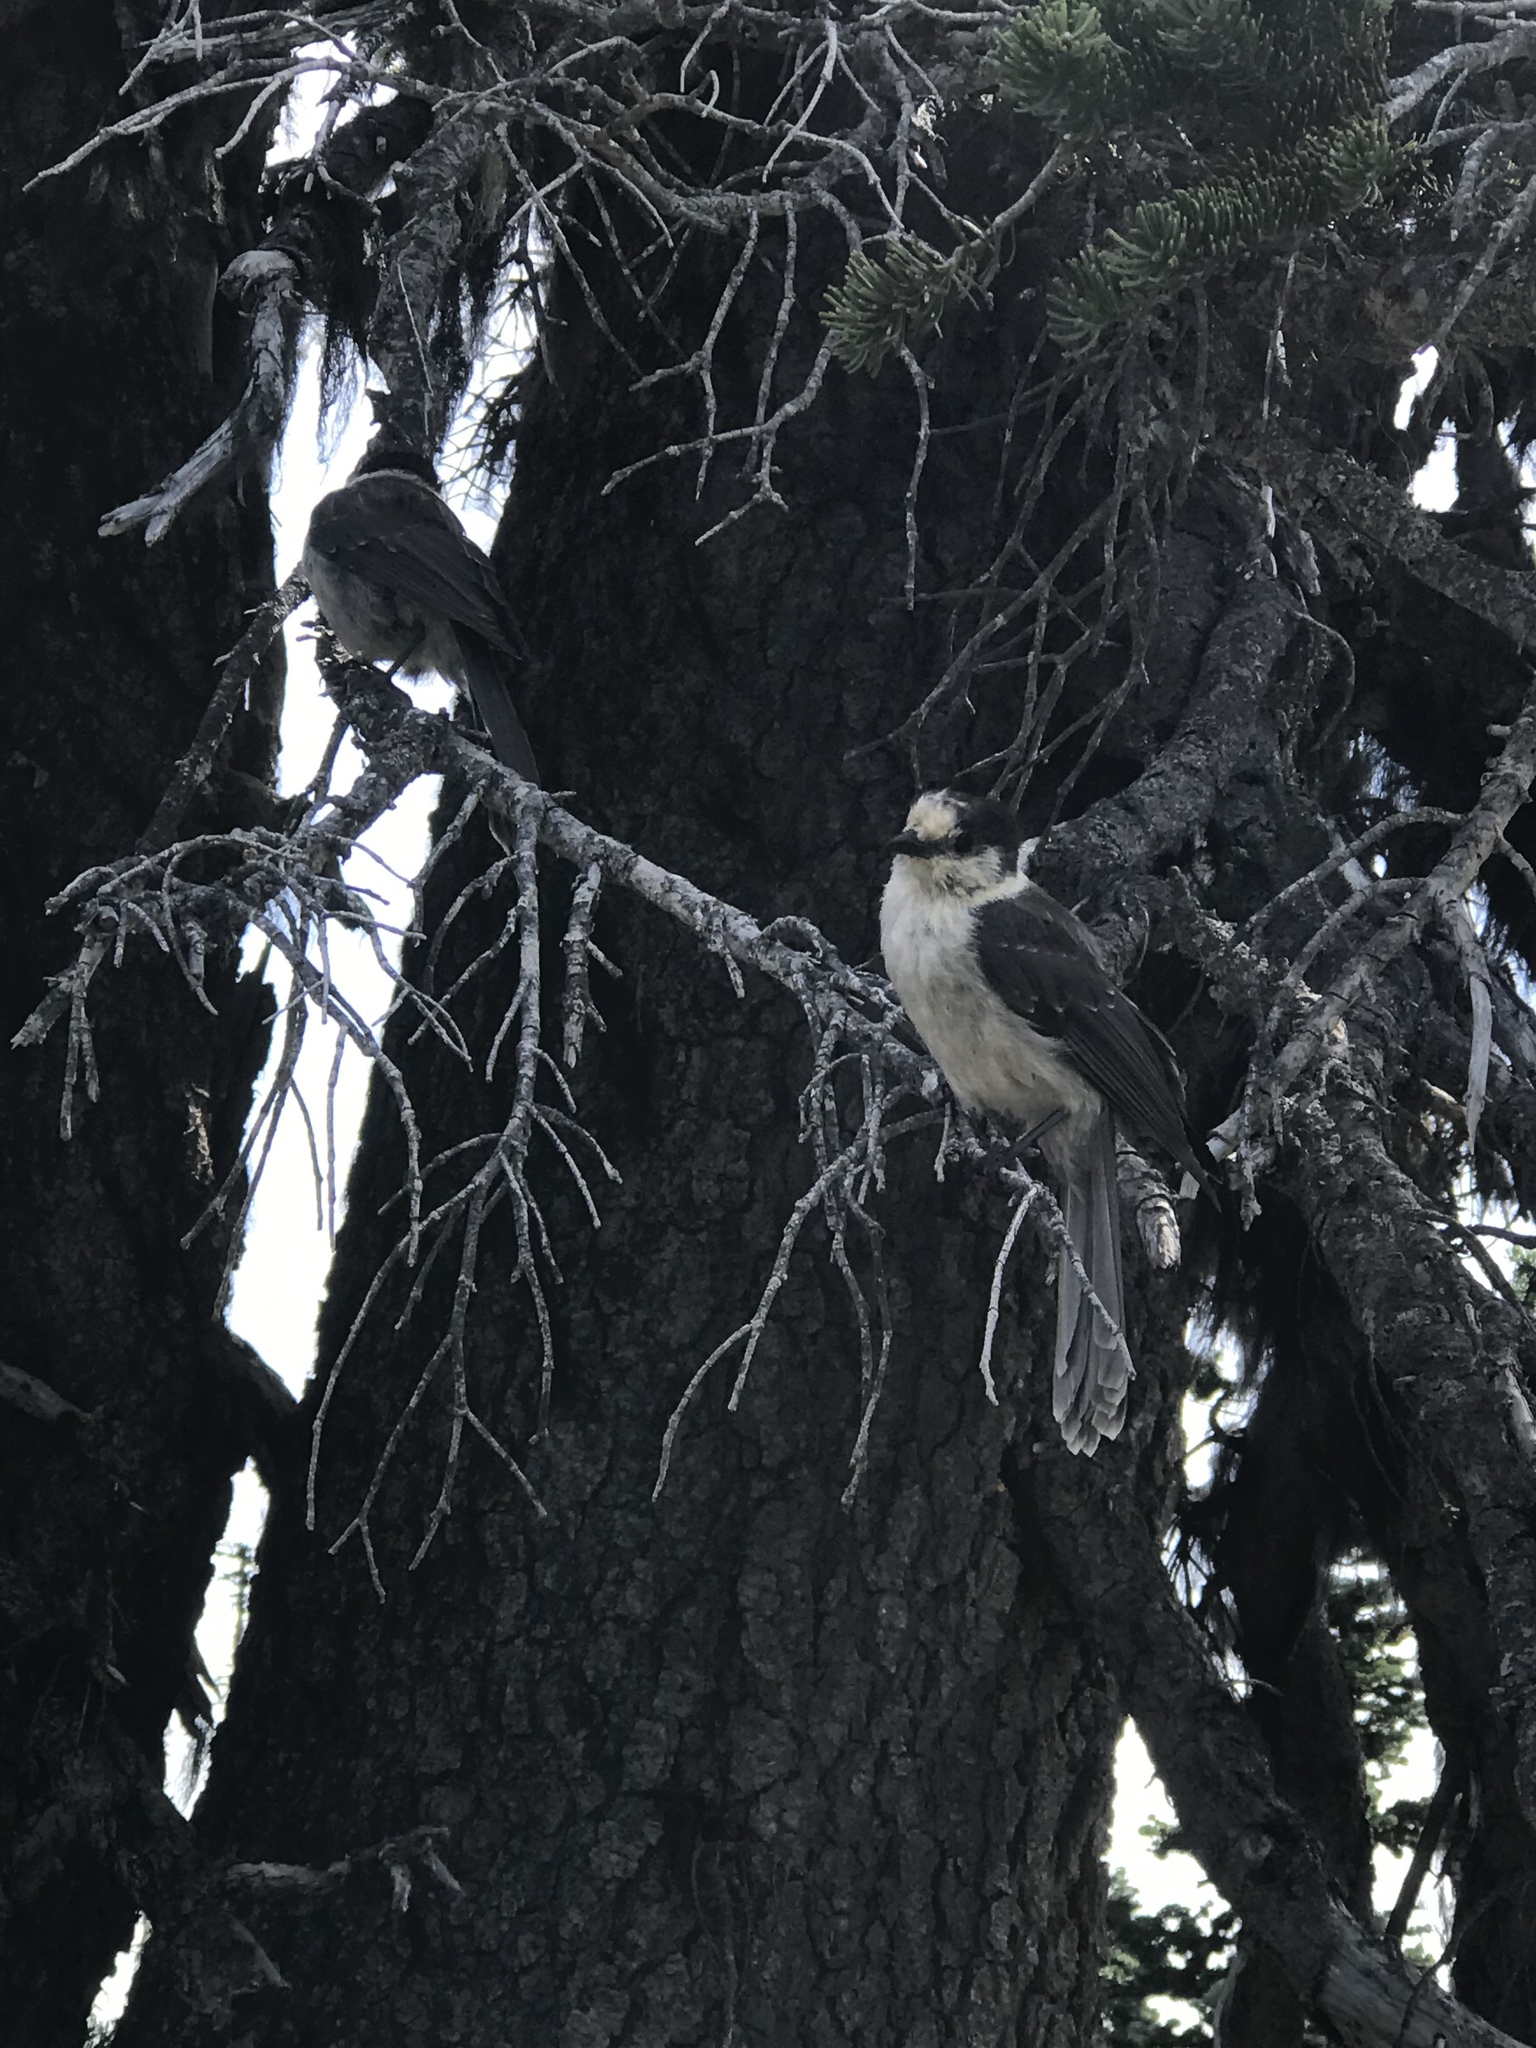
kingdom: Animalia
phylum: Chordata
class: Aves
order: Passeriformes
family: Corvidae
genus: Perisoreus
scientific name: Perisoreus canadensis
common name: Gray jay
